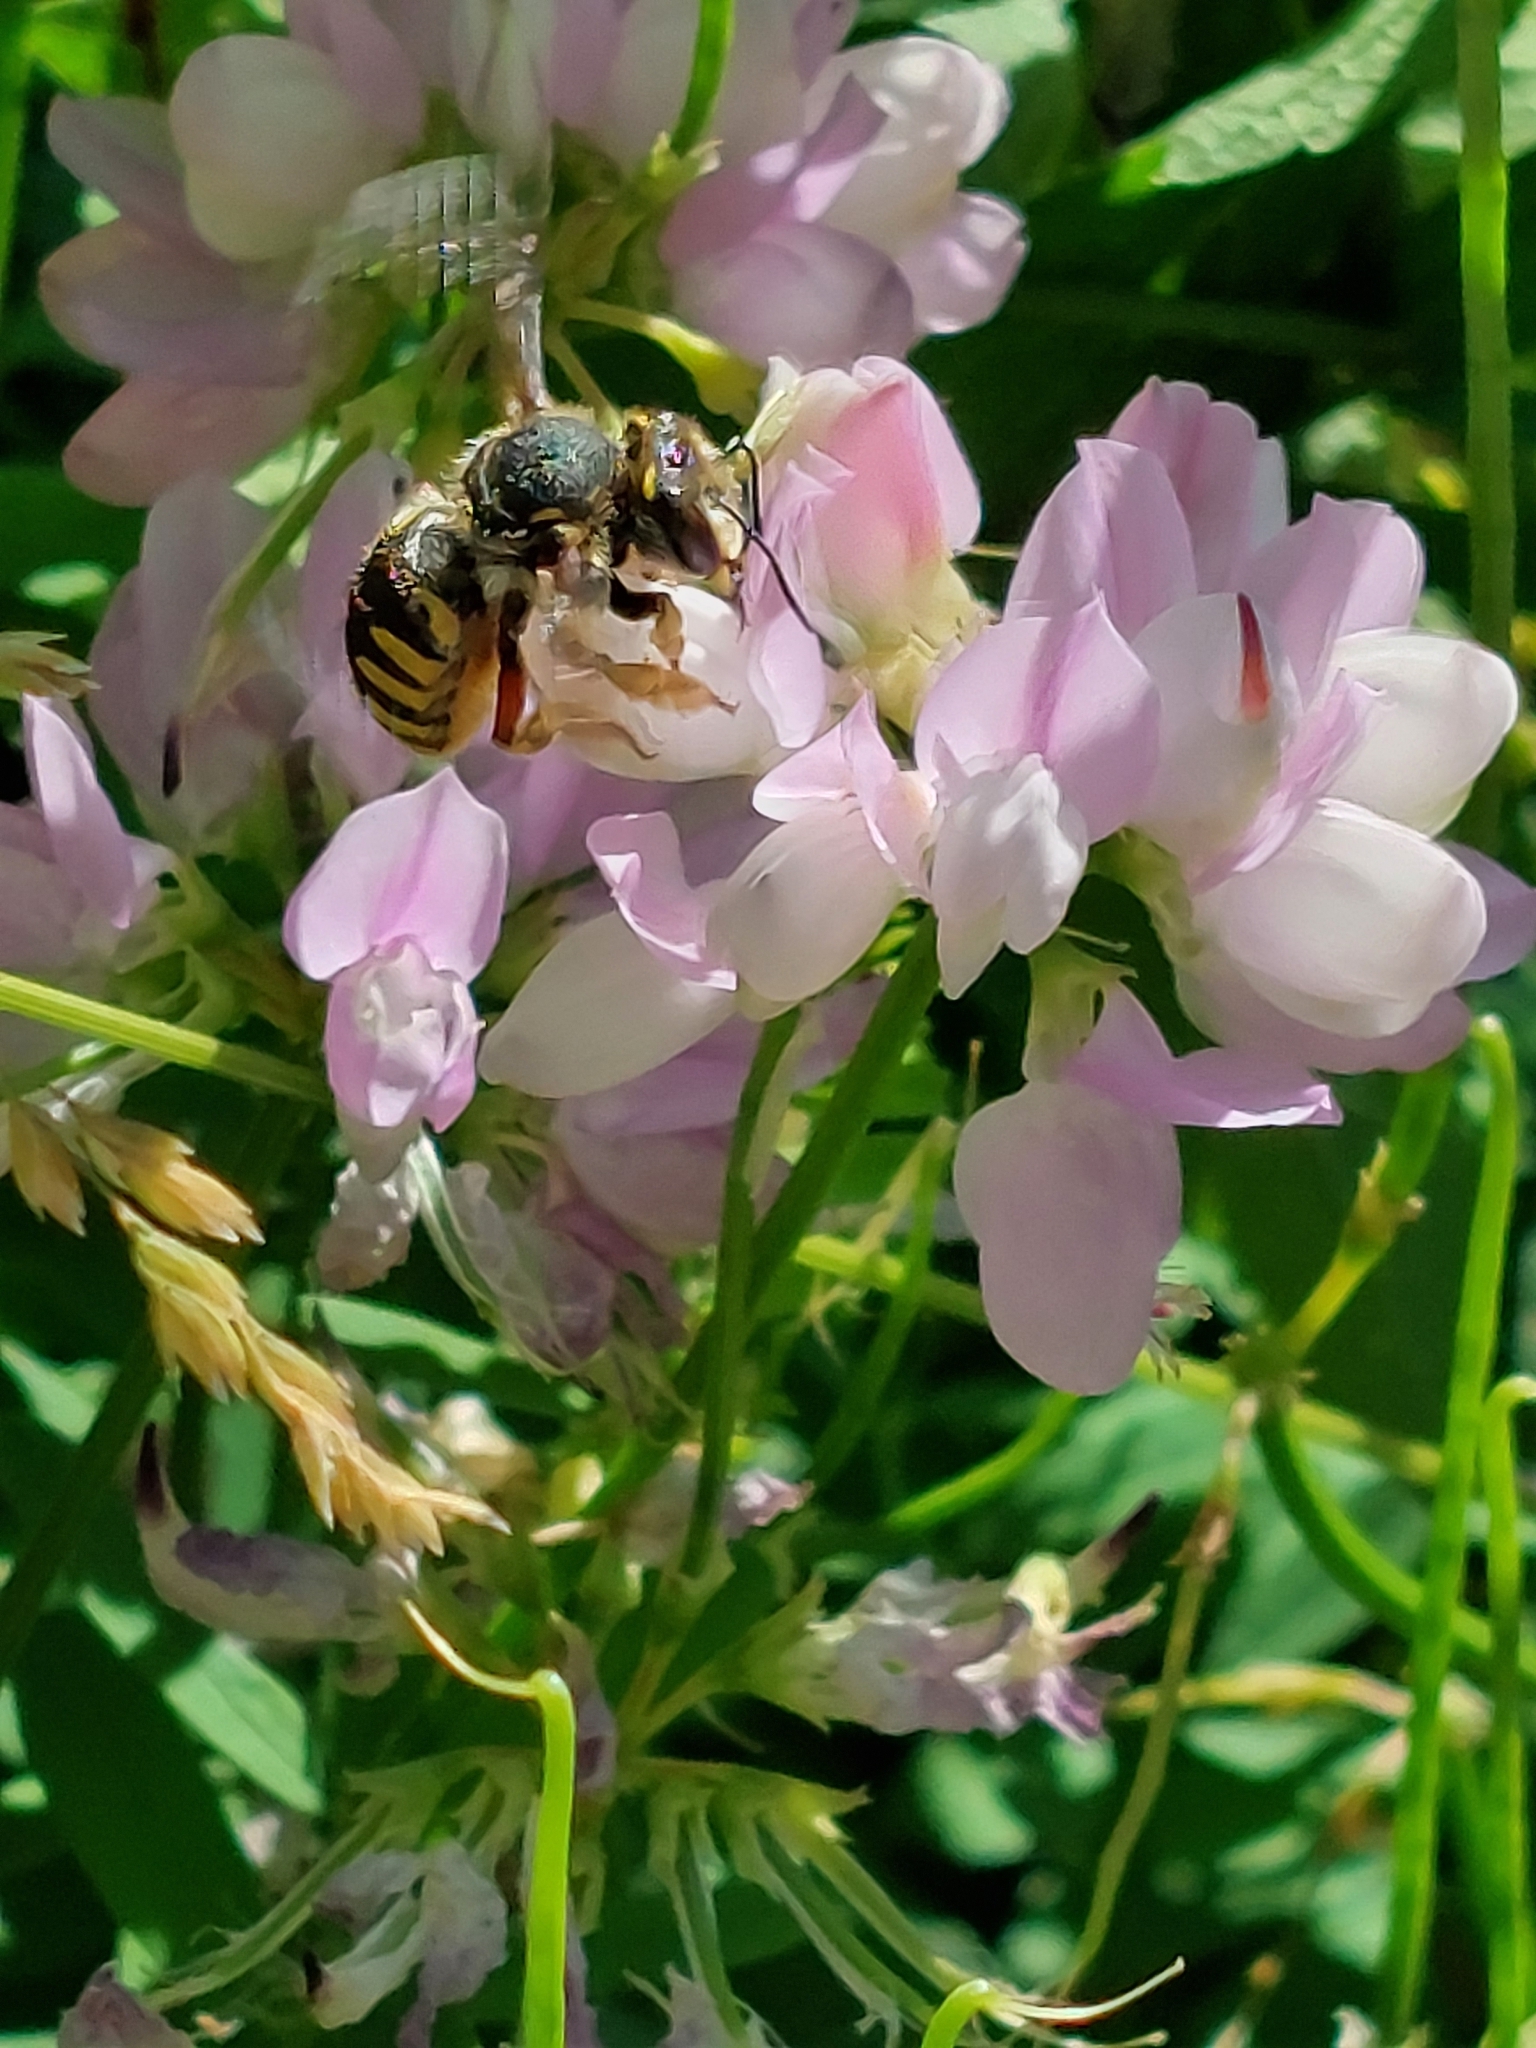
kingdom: Animalia
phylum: Arthropoda
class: Insecta
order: Hymenoptera
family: Megachilidae
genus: Anthidium
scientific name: Anthidium manicatum
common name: Wool carder bee
